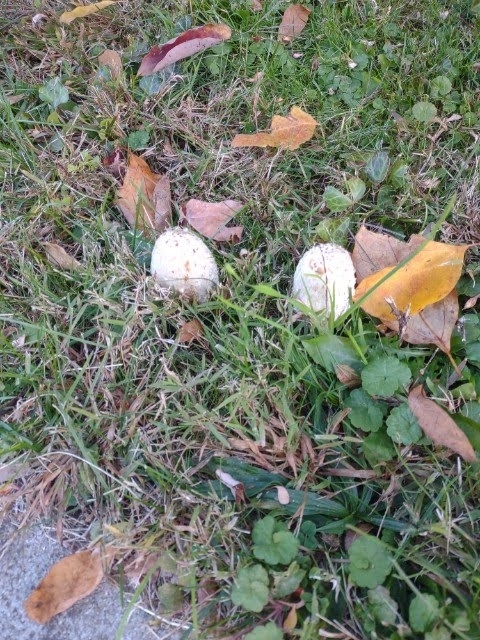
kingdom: Fungi
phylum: Basidiomycota
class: Agaricomycetes
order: Agaricales
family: Agaricaceae
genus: Coprinus
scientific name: Coprinus comatus
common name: Lawyer's wig
